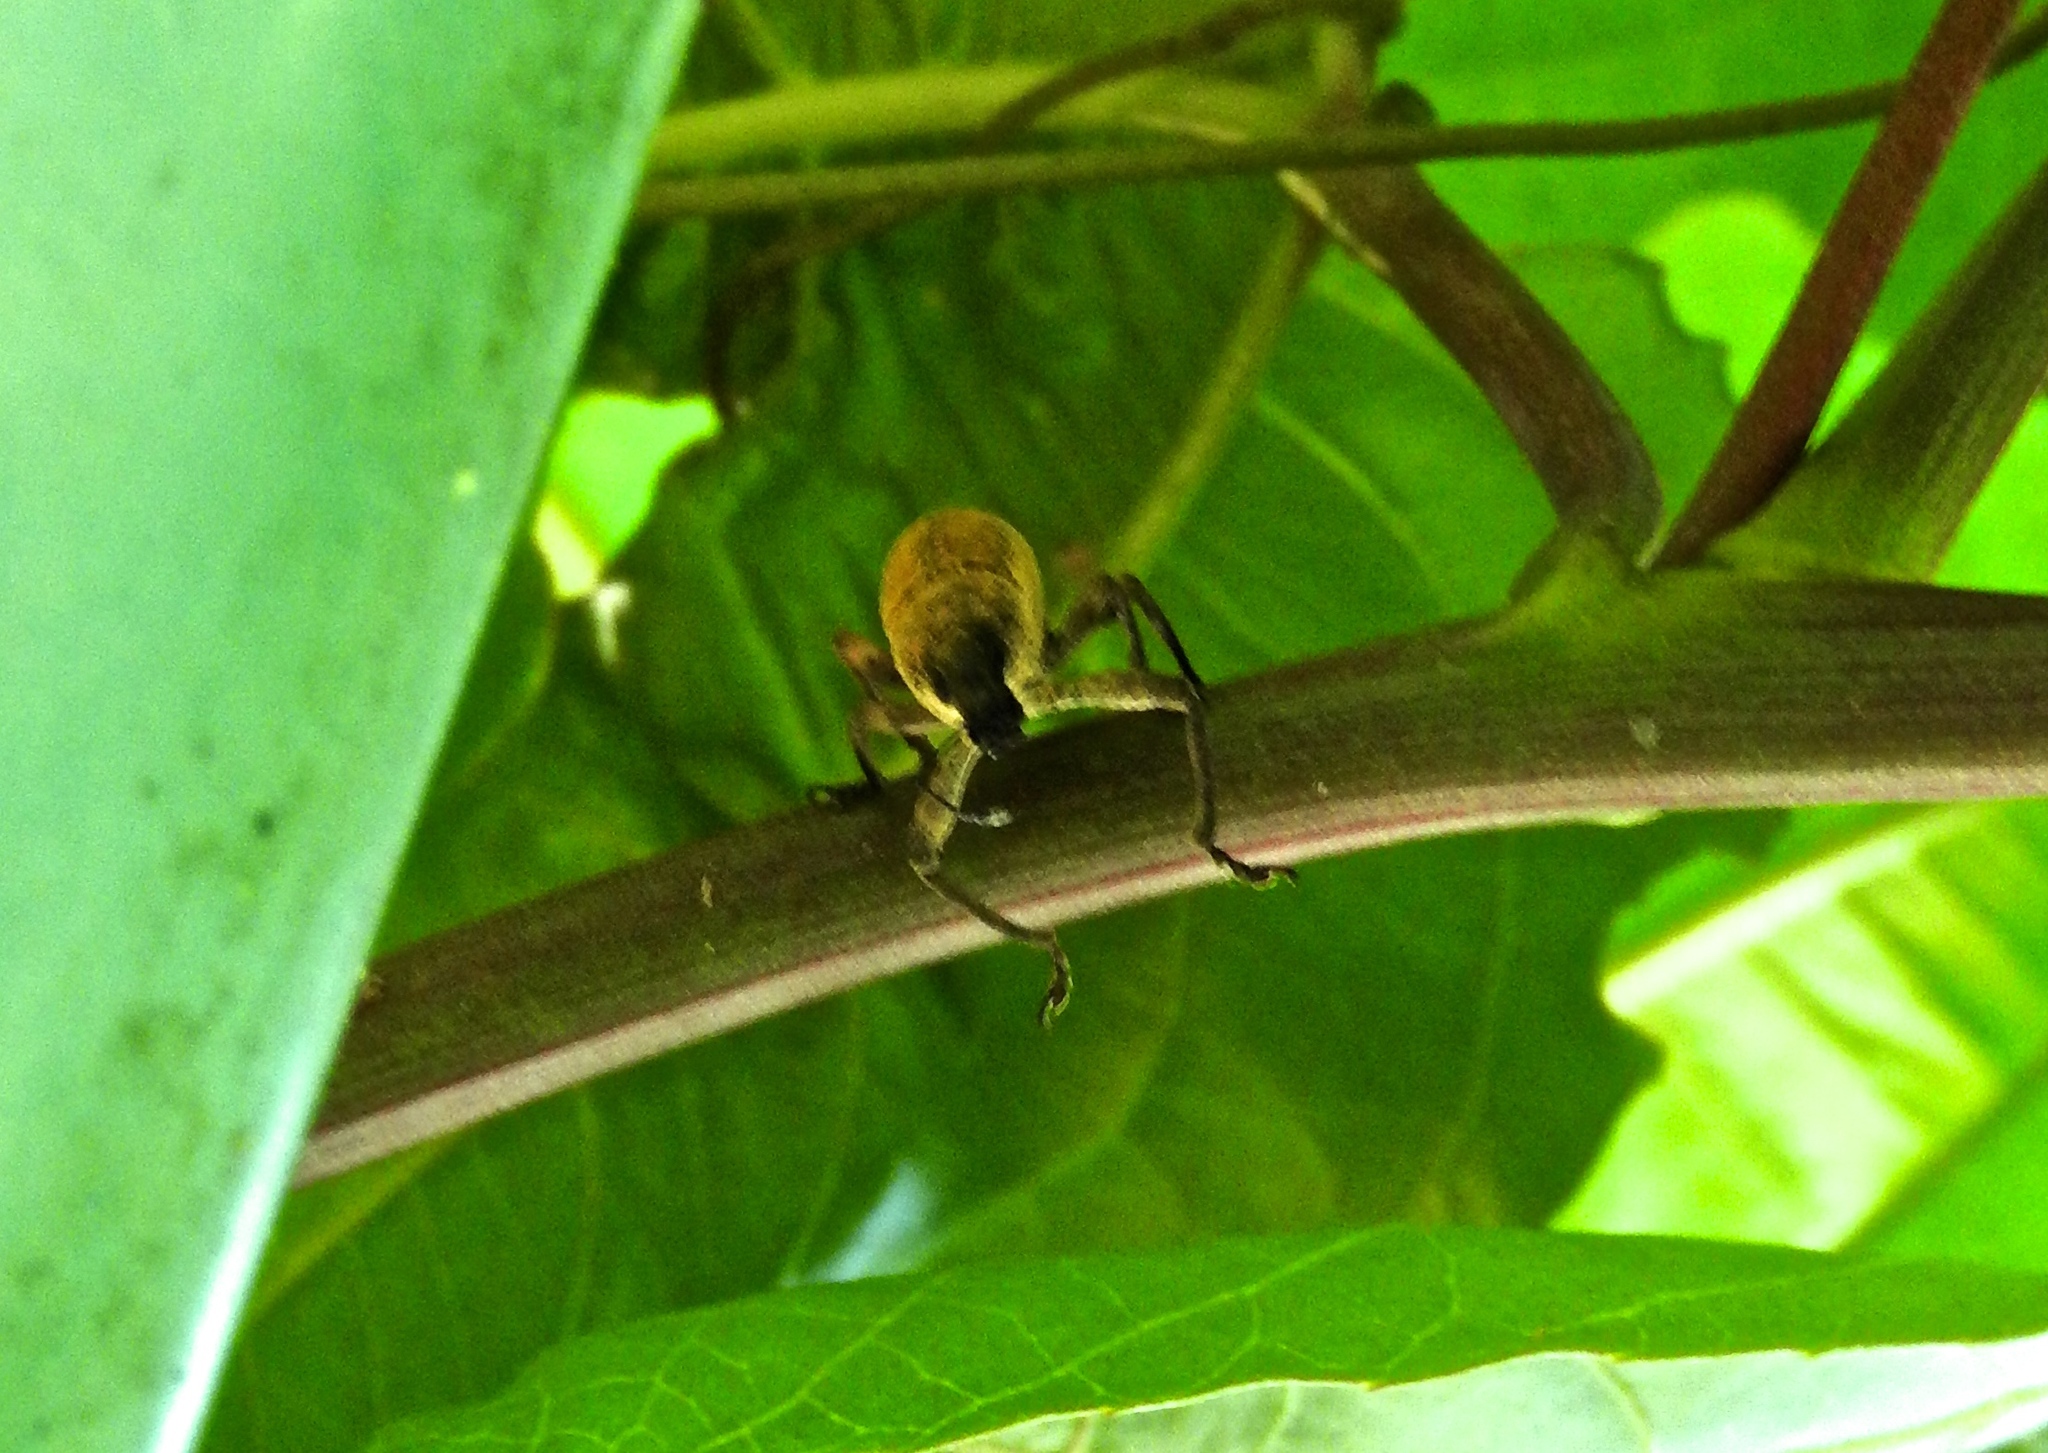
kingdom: Animalia
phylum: Arthropoda
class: Insecta
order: Coleoptera
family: Curculionidae
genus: Epicaerus
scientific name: Epicaerus
